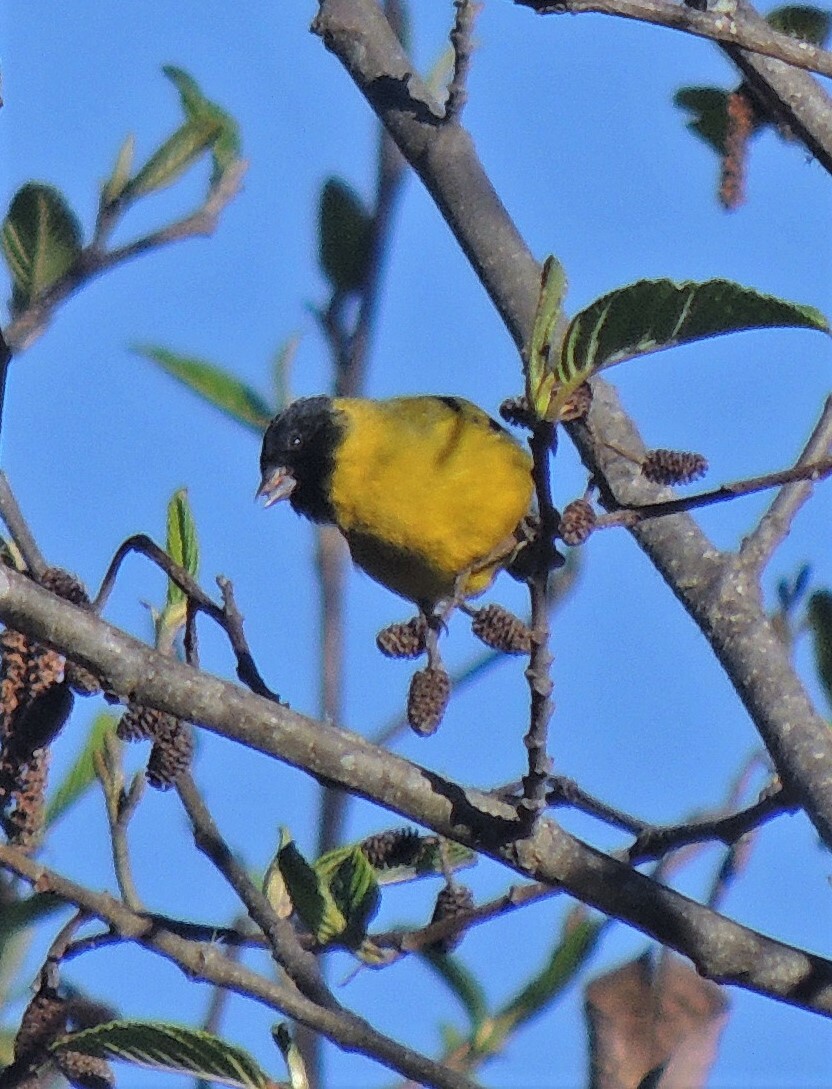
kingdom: Animalia
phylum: Chordata
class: Aves
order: Passeriformes
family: Fringillidae
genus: Spinus
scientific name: Spinus magellanicus
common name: Hooded siskin
